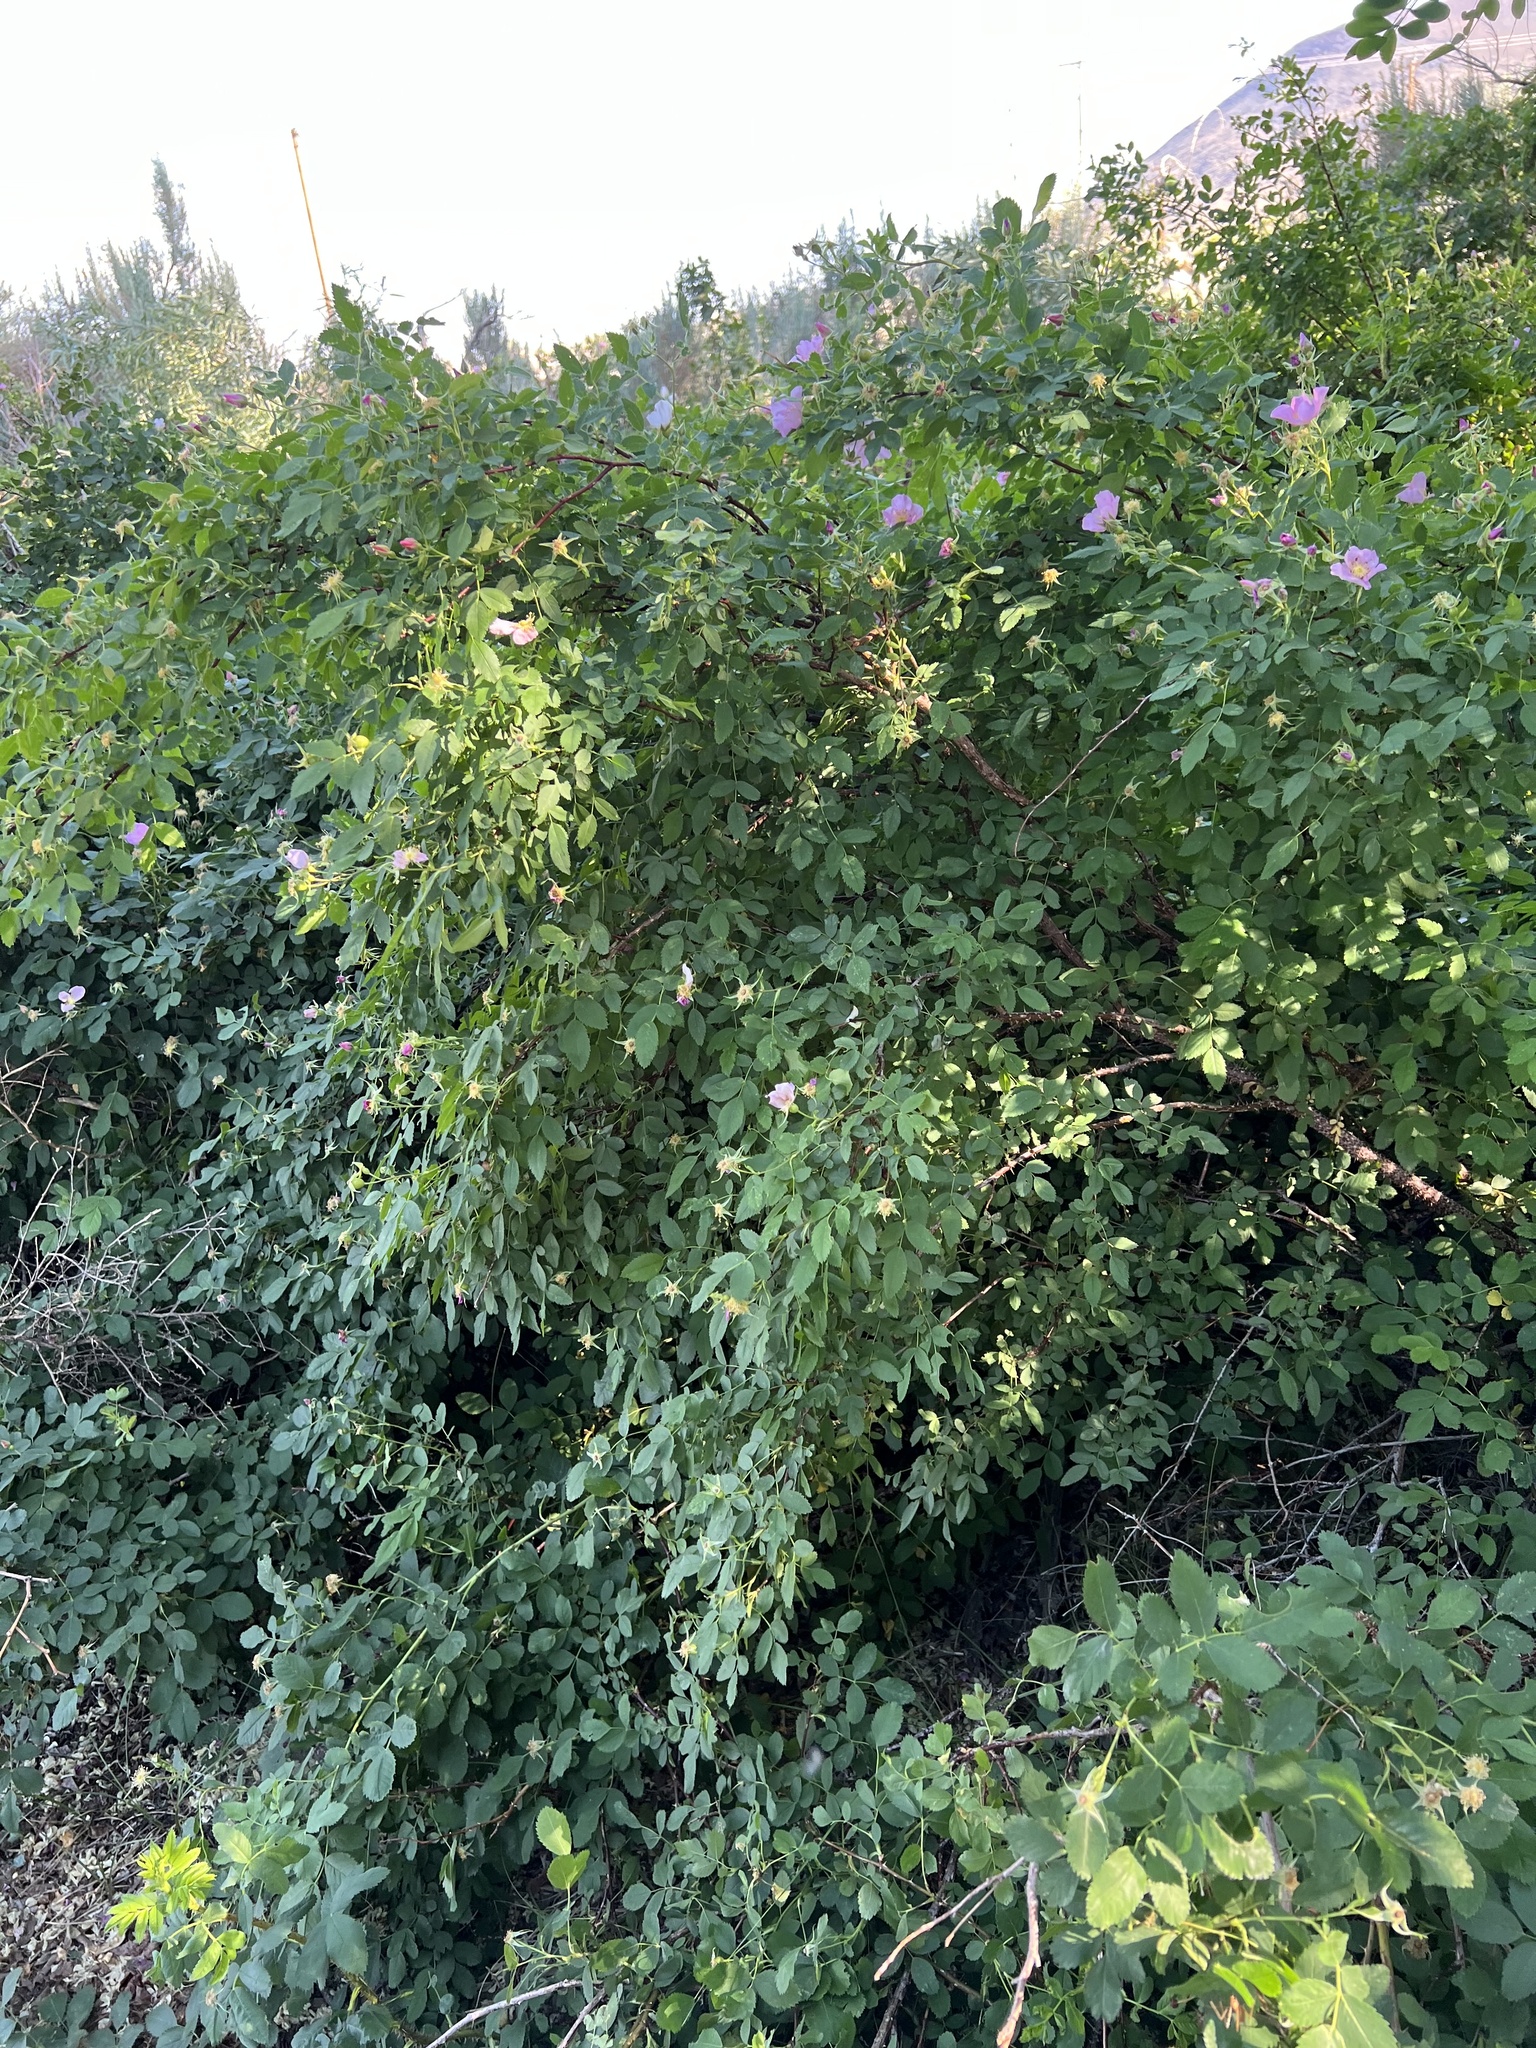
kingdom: Plantae
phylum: Tracheophyta
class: Magnoliopsida
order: Rosales
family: Rosaceae
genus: Rosa
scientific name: Rosa woodsii
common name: Woods's rose
